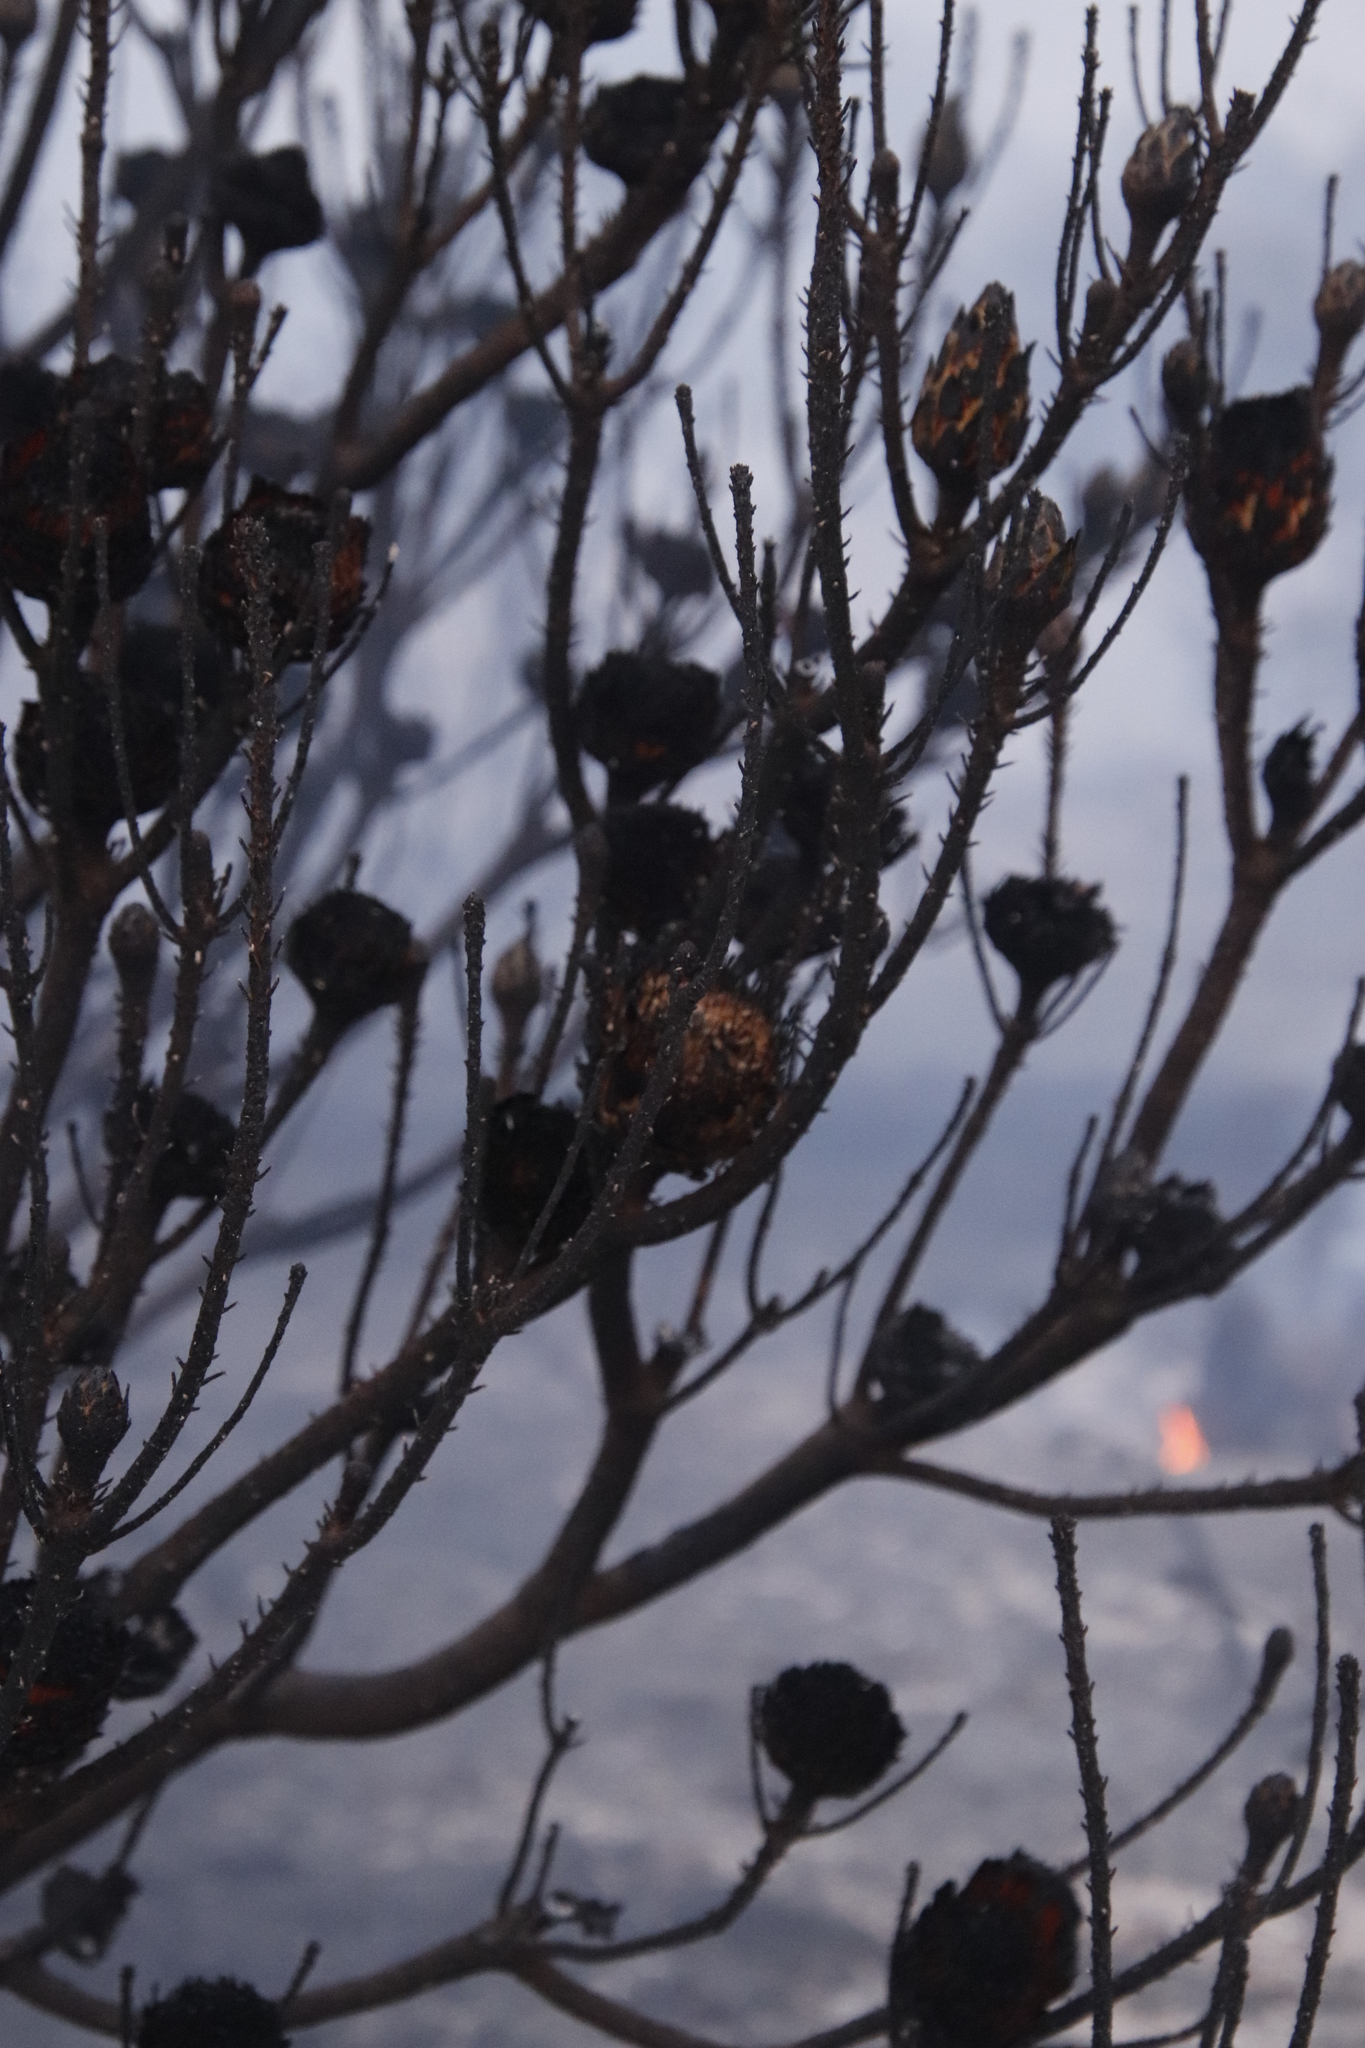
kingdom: Plantae
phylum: Tracheophyta
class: Magnoliopsida
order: Proteales
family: Proteaceae
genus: Protea
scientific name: Protea repens
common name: Sugarbush
